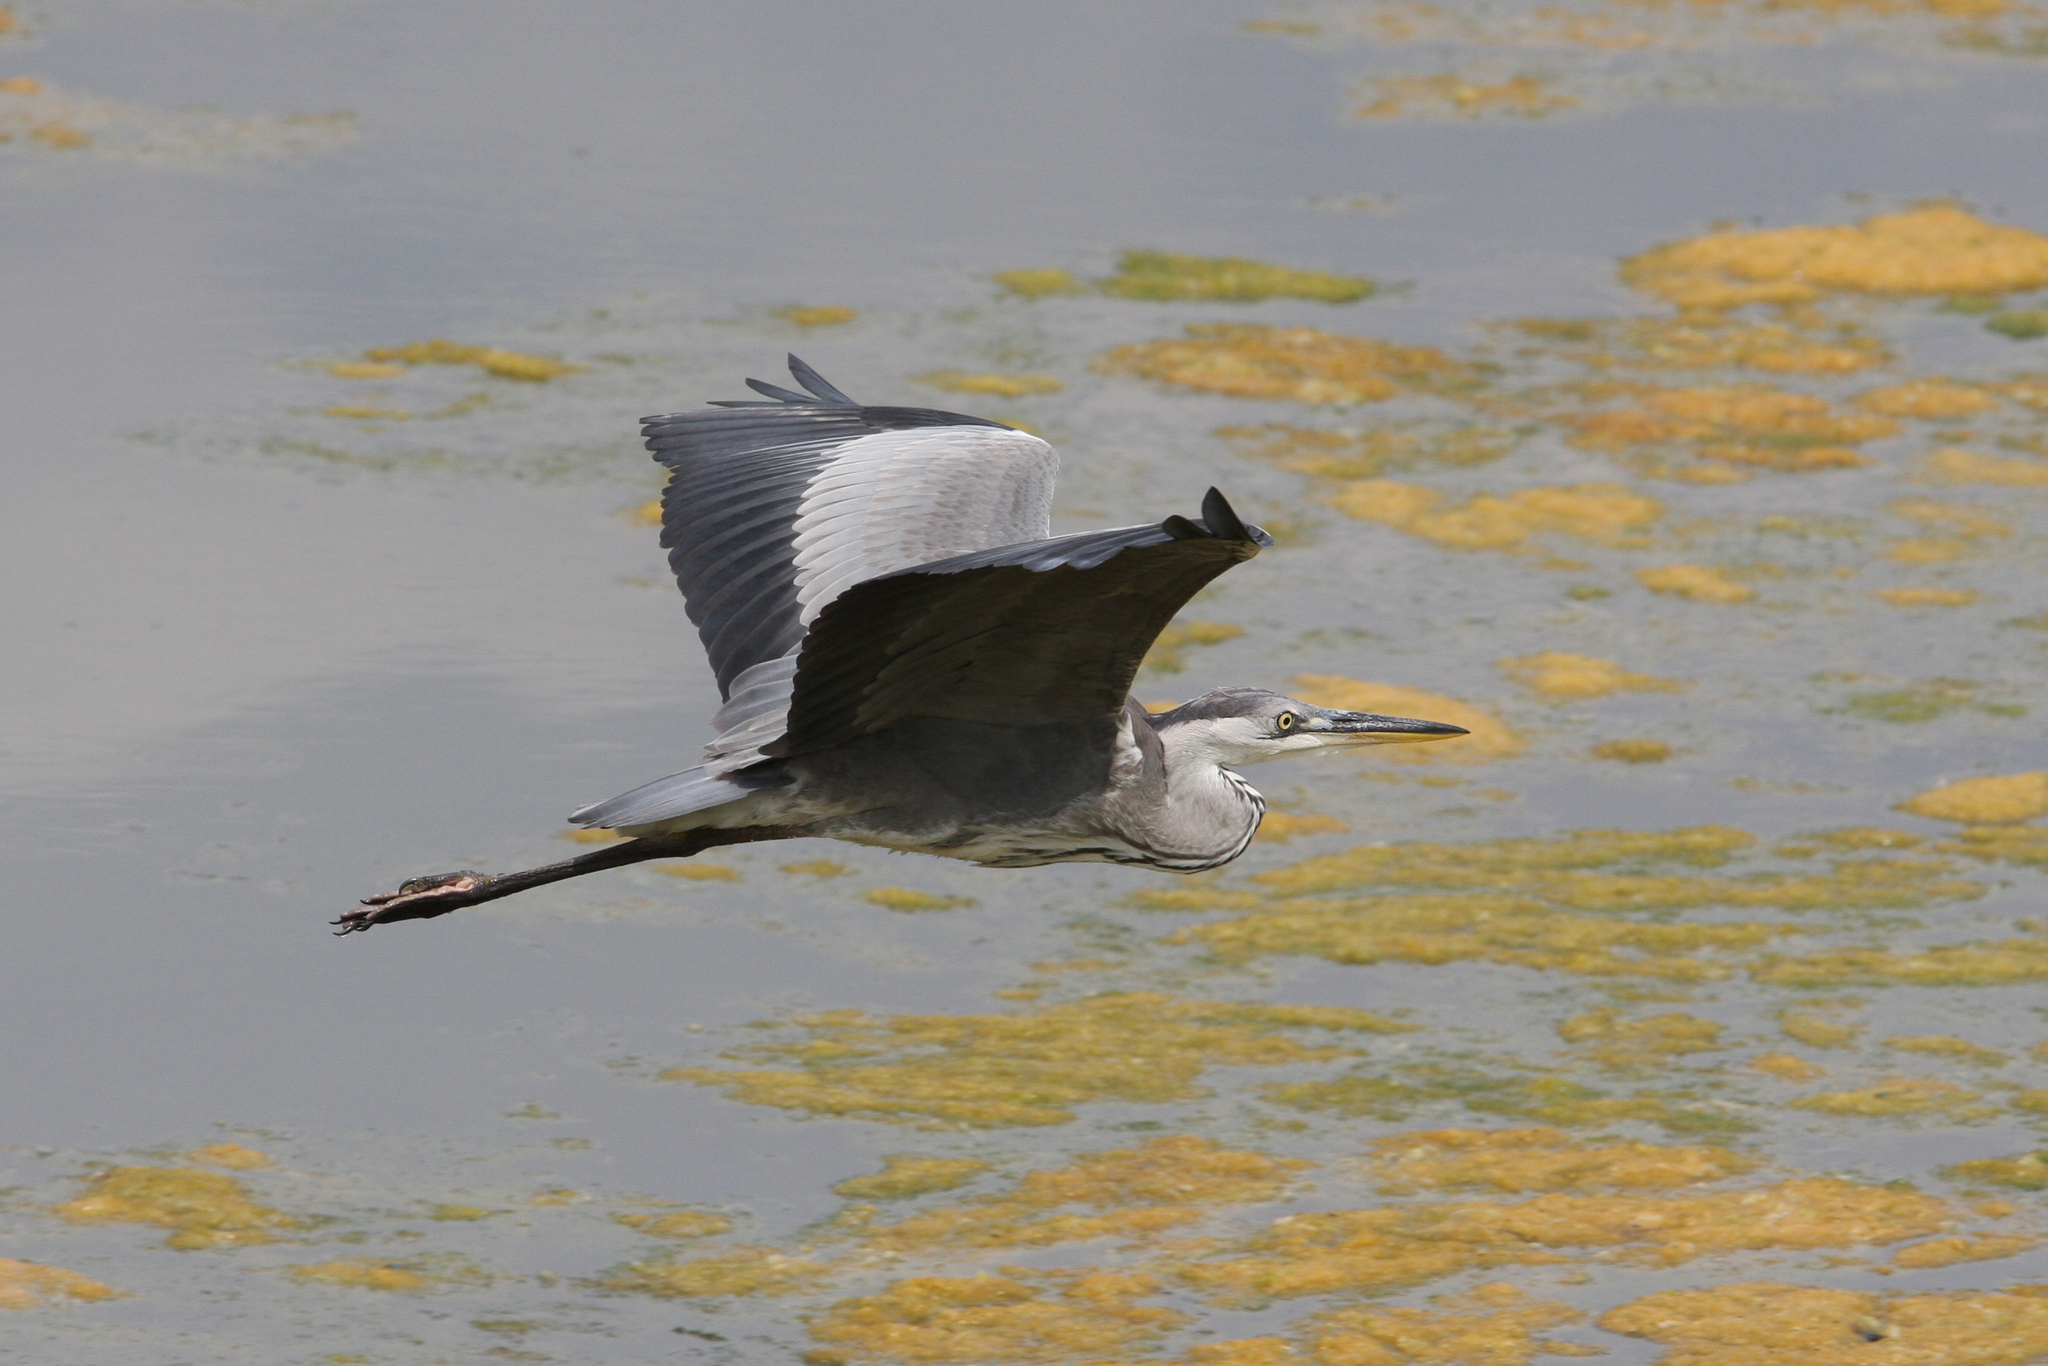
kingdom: Animalia
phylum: Chordata
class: Aves
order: Pelecaniformes
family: Ardeidae
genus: Ardea
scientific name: Ardea cinerea
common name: Grey heron
